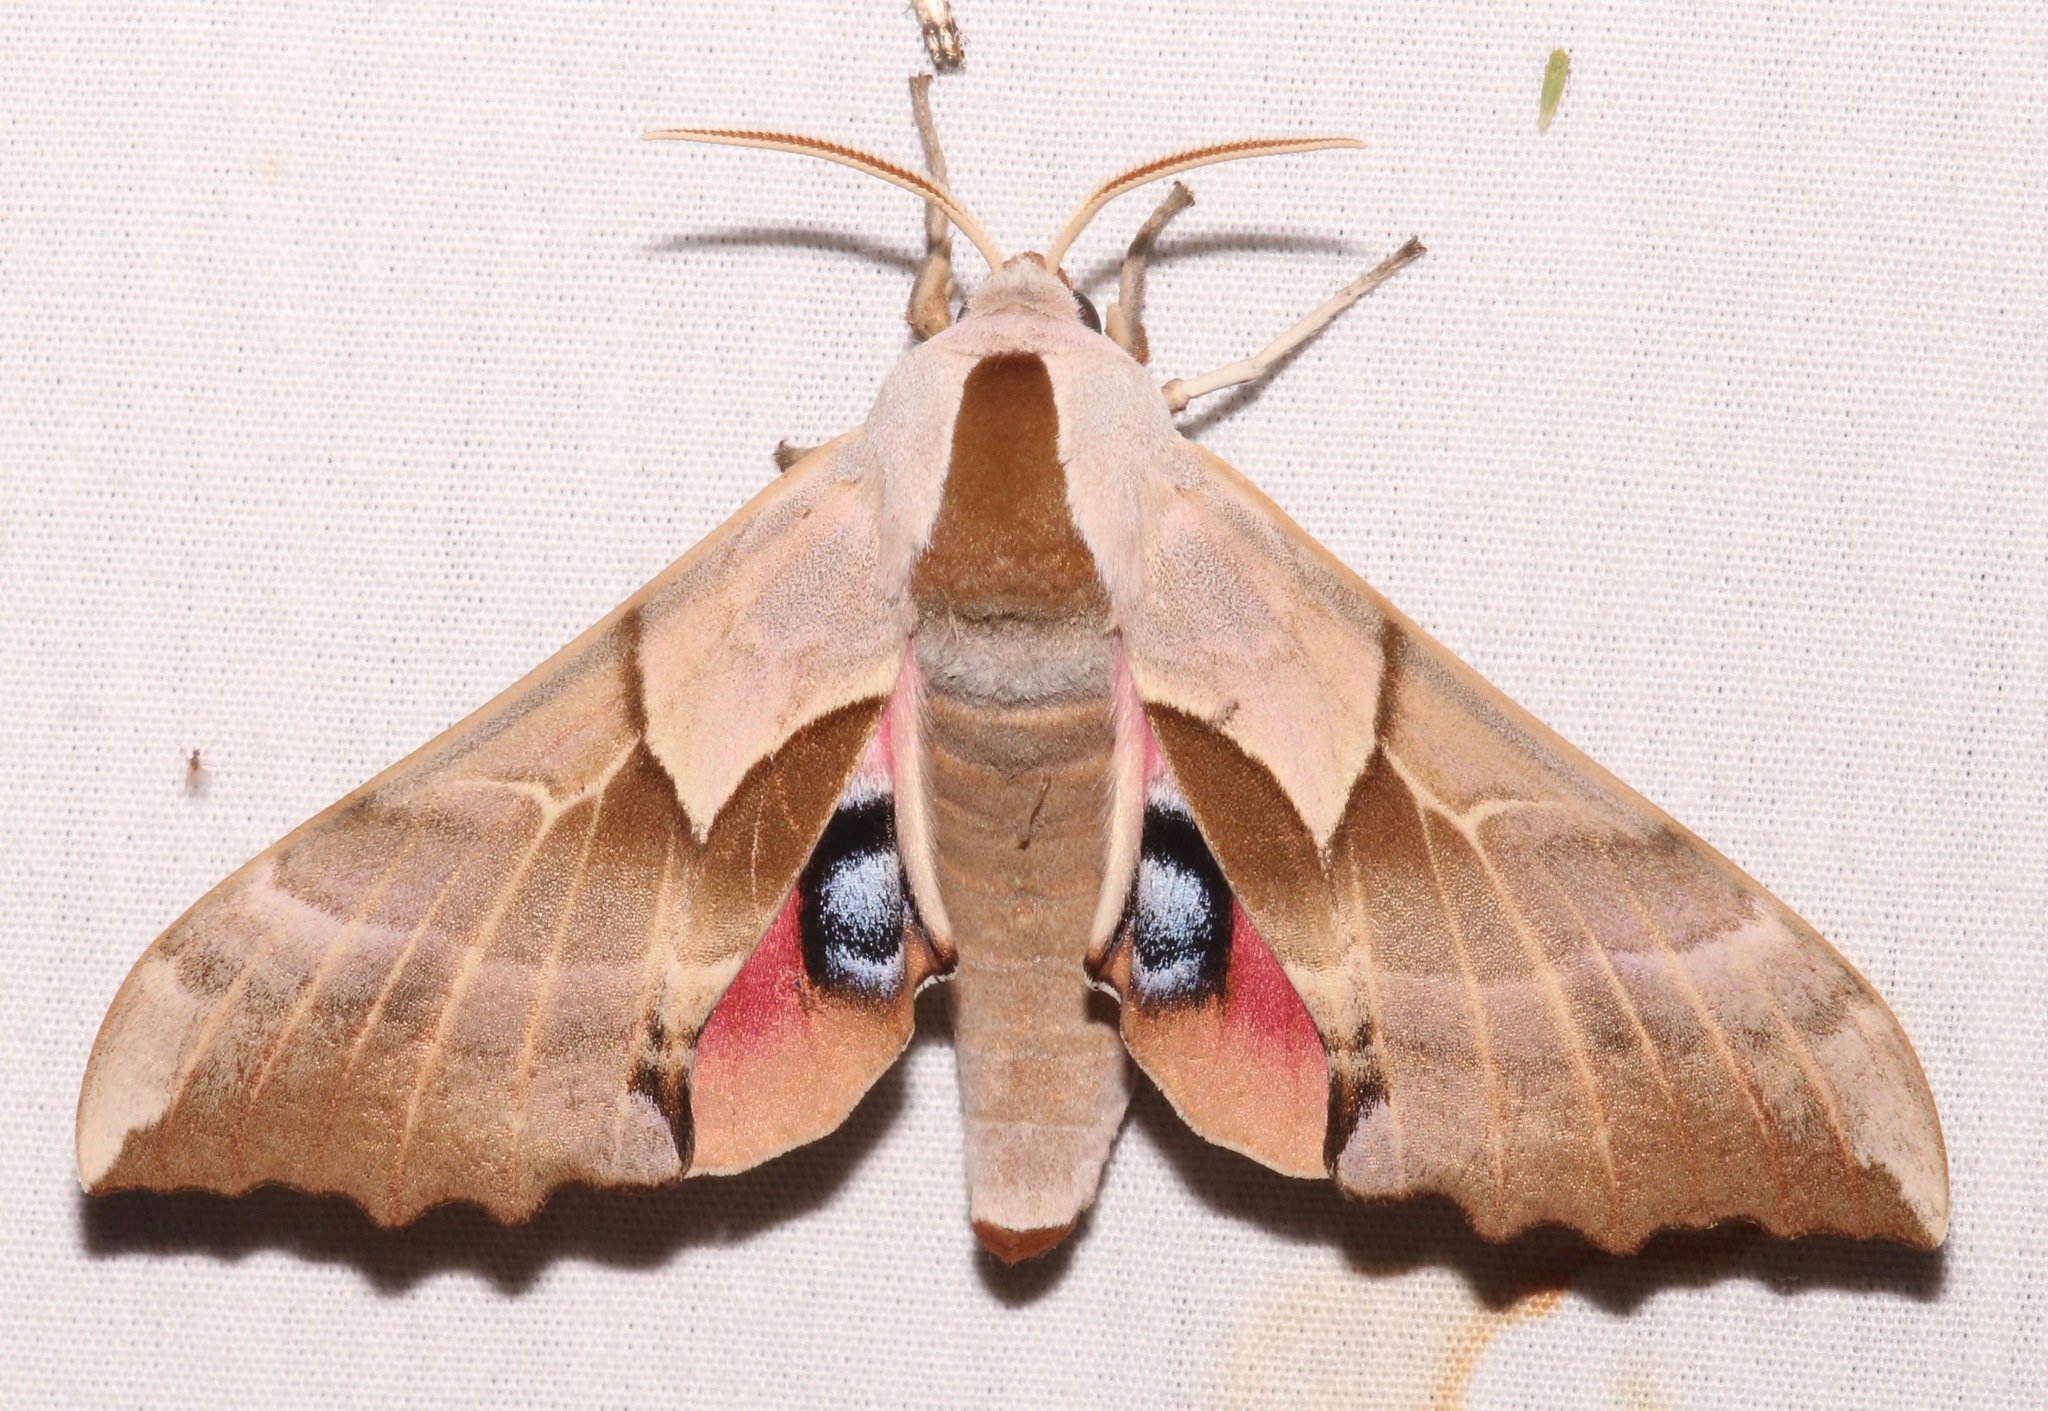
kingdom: Animalia
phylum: Arthropoda
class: Insecta
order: Lepidoptera
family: Sphingidae
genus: Smerinthus
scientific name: Smerinthus saliceti
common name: Salicet sphinx
